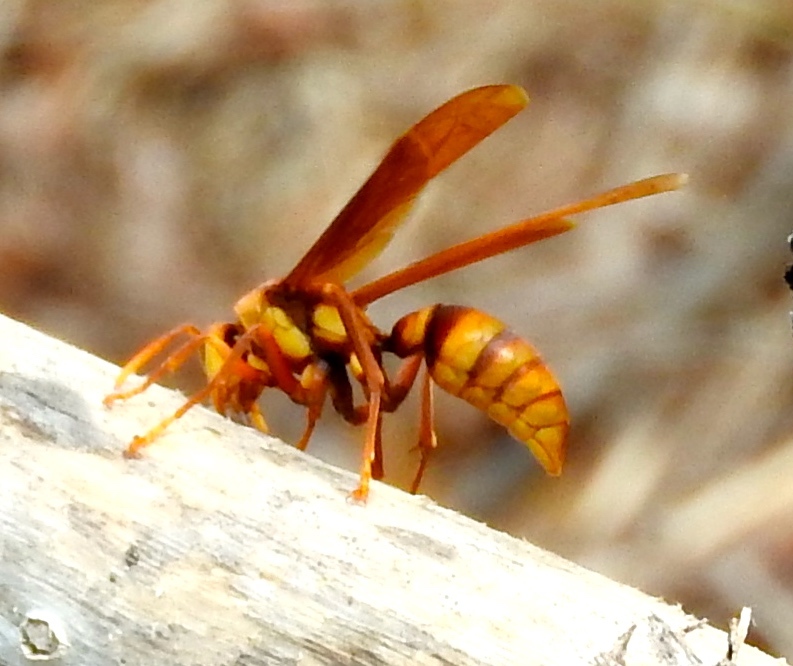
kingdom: Animalia
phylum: Arthropoda
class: Insecta
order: Hymenoptera
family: Eumenidae
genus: Polistes
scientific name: Polistes carnifex
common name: Paper wasp
